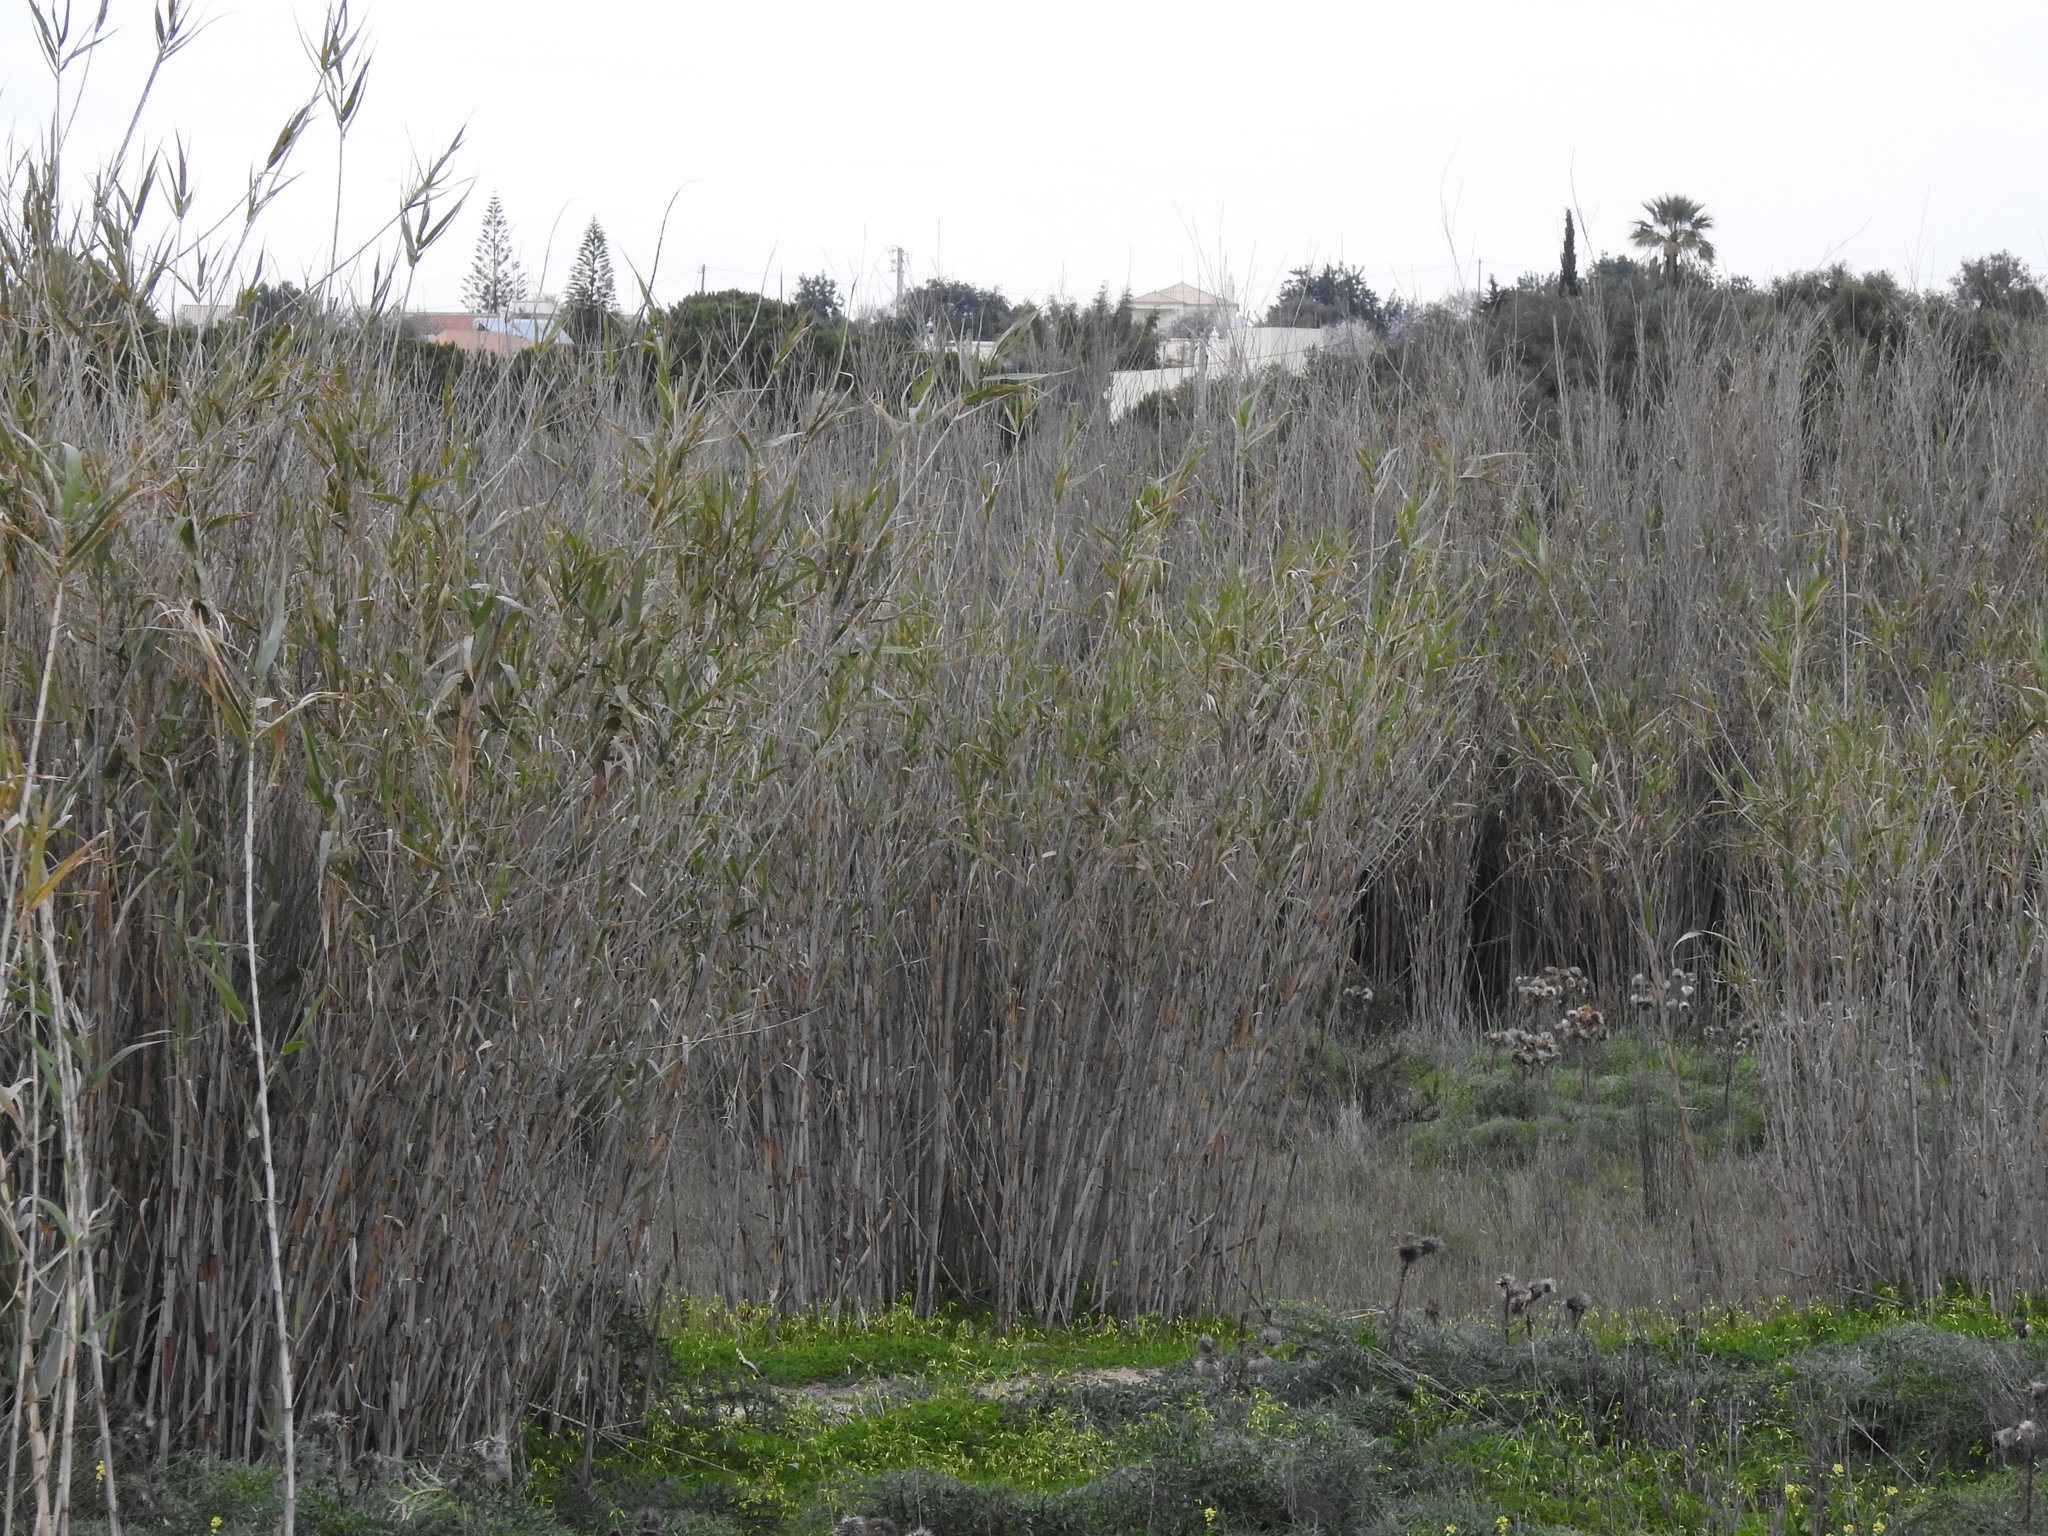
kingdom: Plantae
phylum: Tracheophyta
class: Liliopsida
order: Poales
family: Poaceae
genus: Arundo
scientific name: Arundo donax
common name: Giant reed
